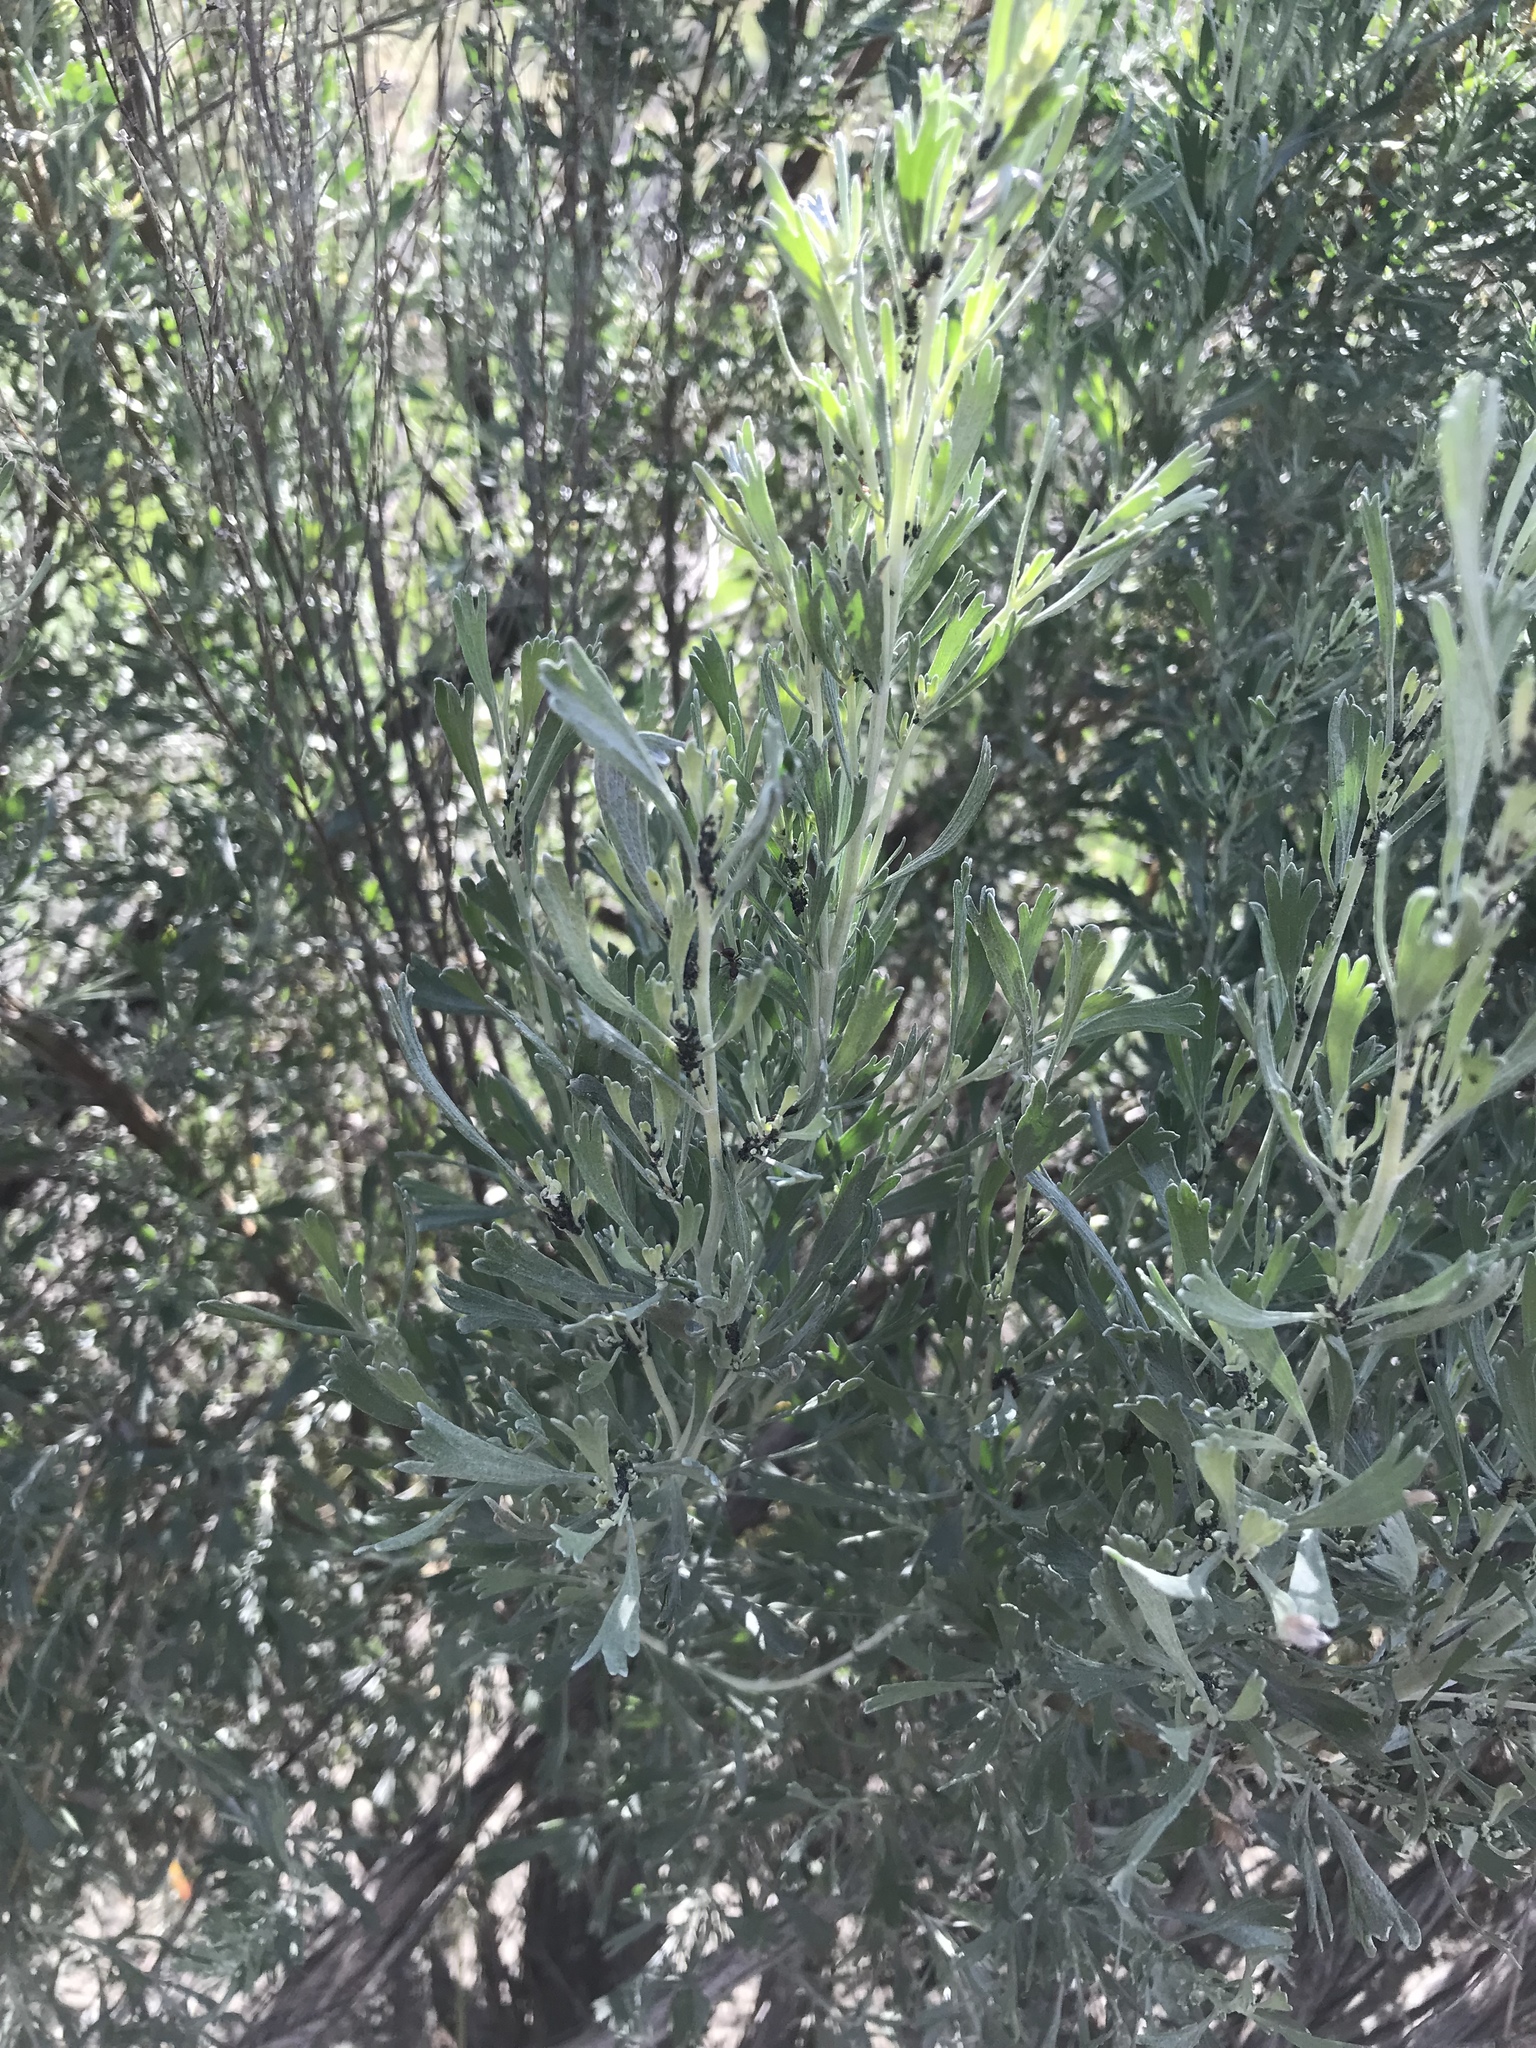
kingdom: Plantae
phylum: Tracheophyta
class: Magnoliopsida
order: Asterales
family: Asteraceae
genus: Artemisia
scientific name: Artemisia tridentata
